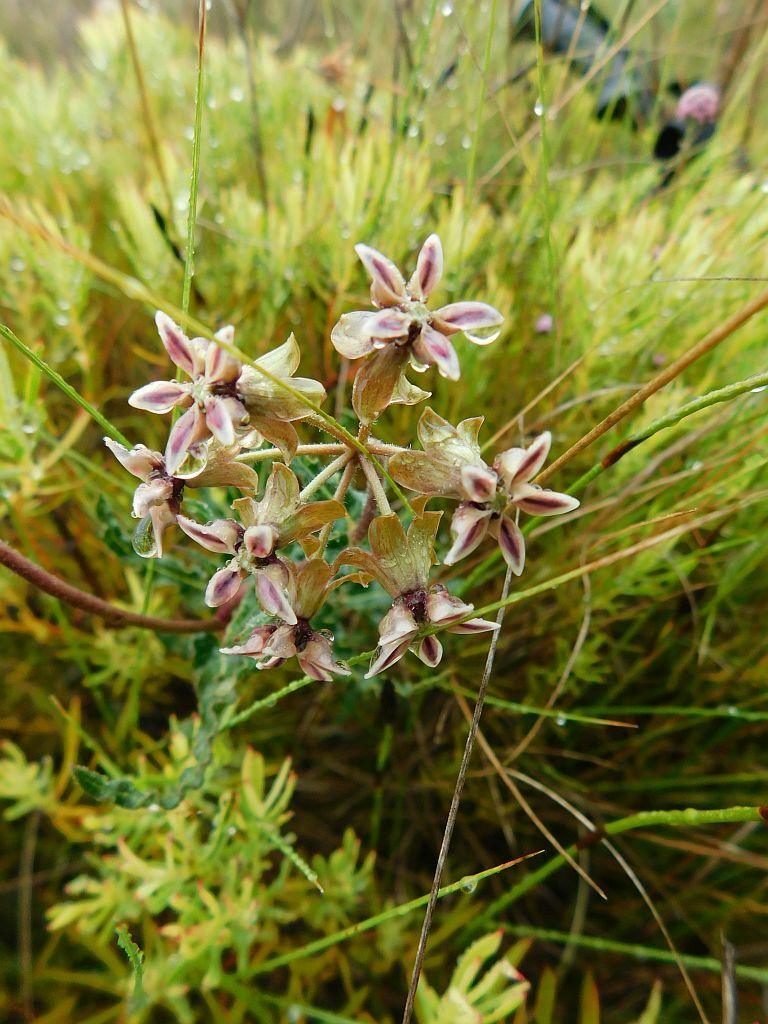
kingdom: Plantae
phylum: Tracheophyta
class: Magnoliopsida
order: Gentianales
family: Apocynaceae
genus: Asclepias
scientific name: Asclepias crispa
